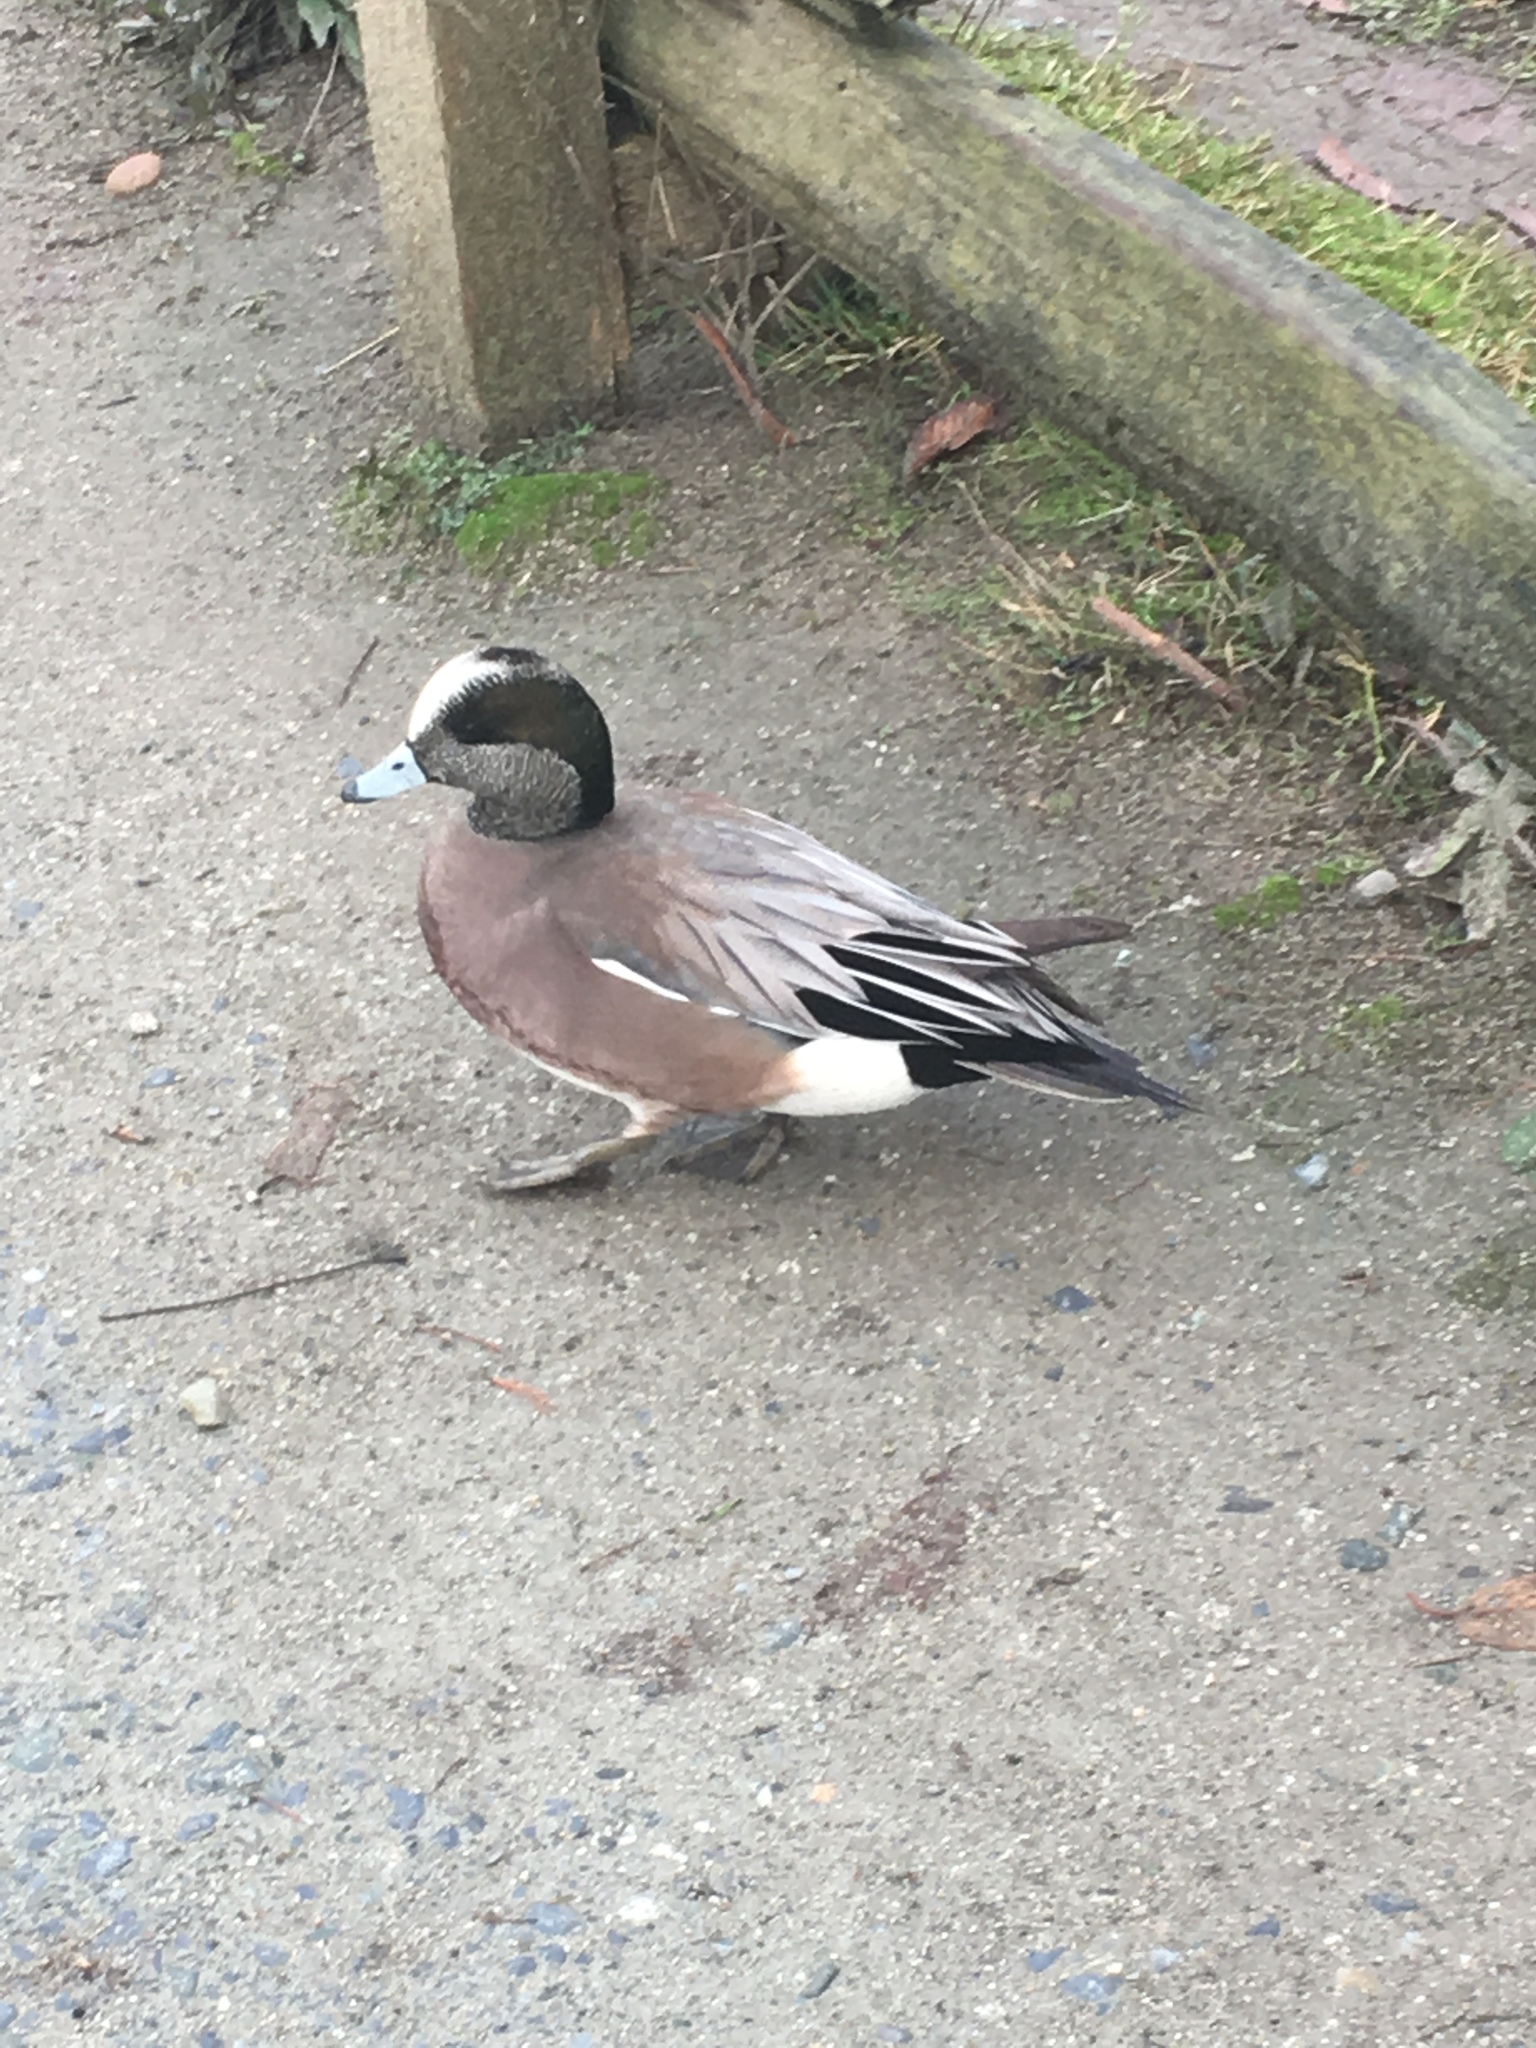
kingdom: Animalia
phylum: Chordata
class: Aves
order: Anseriformes
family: Anatidae
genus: Mareca
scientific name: Mareca americana
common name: American wigeon
